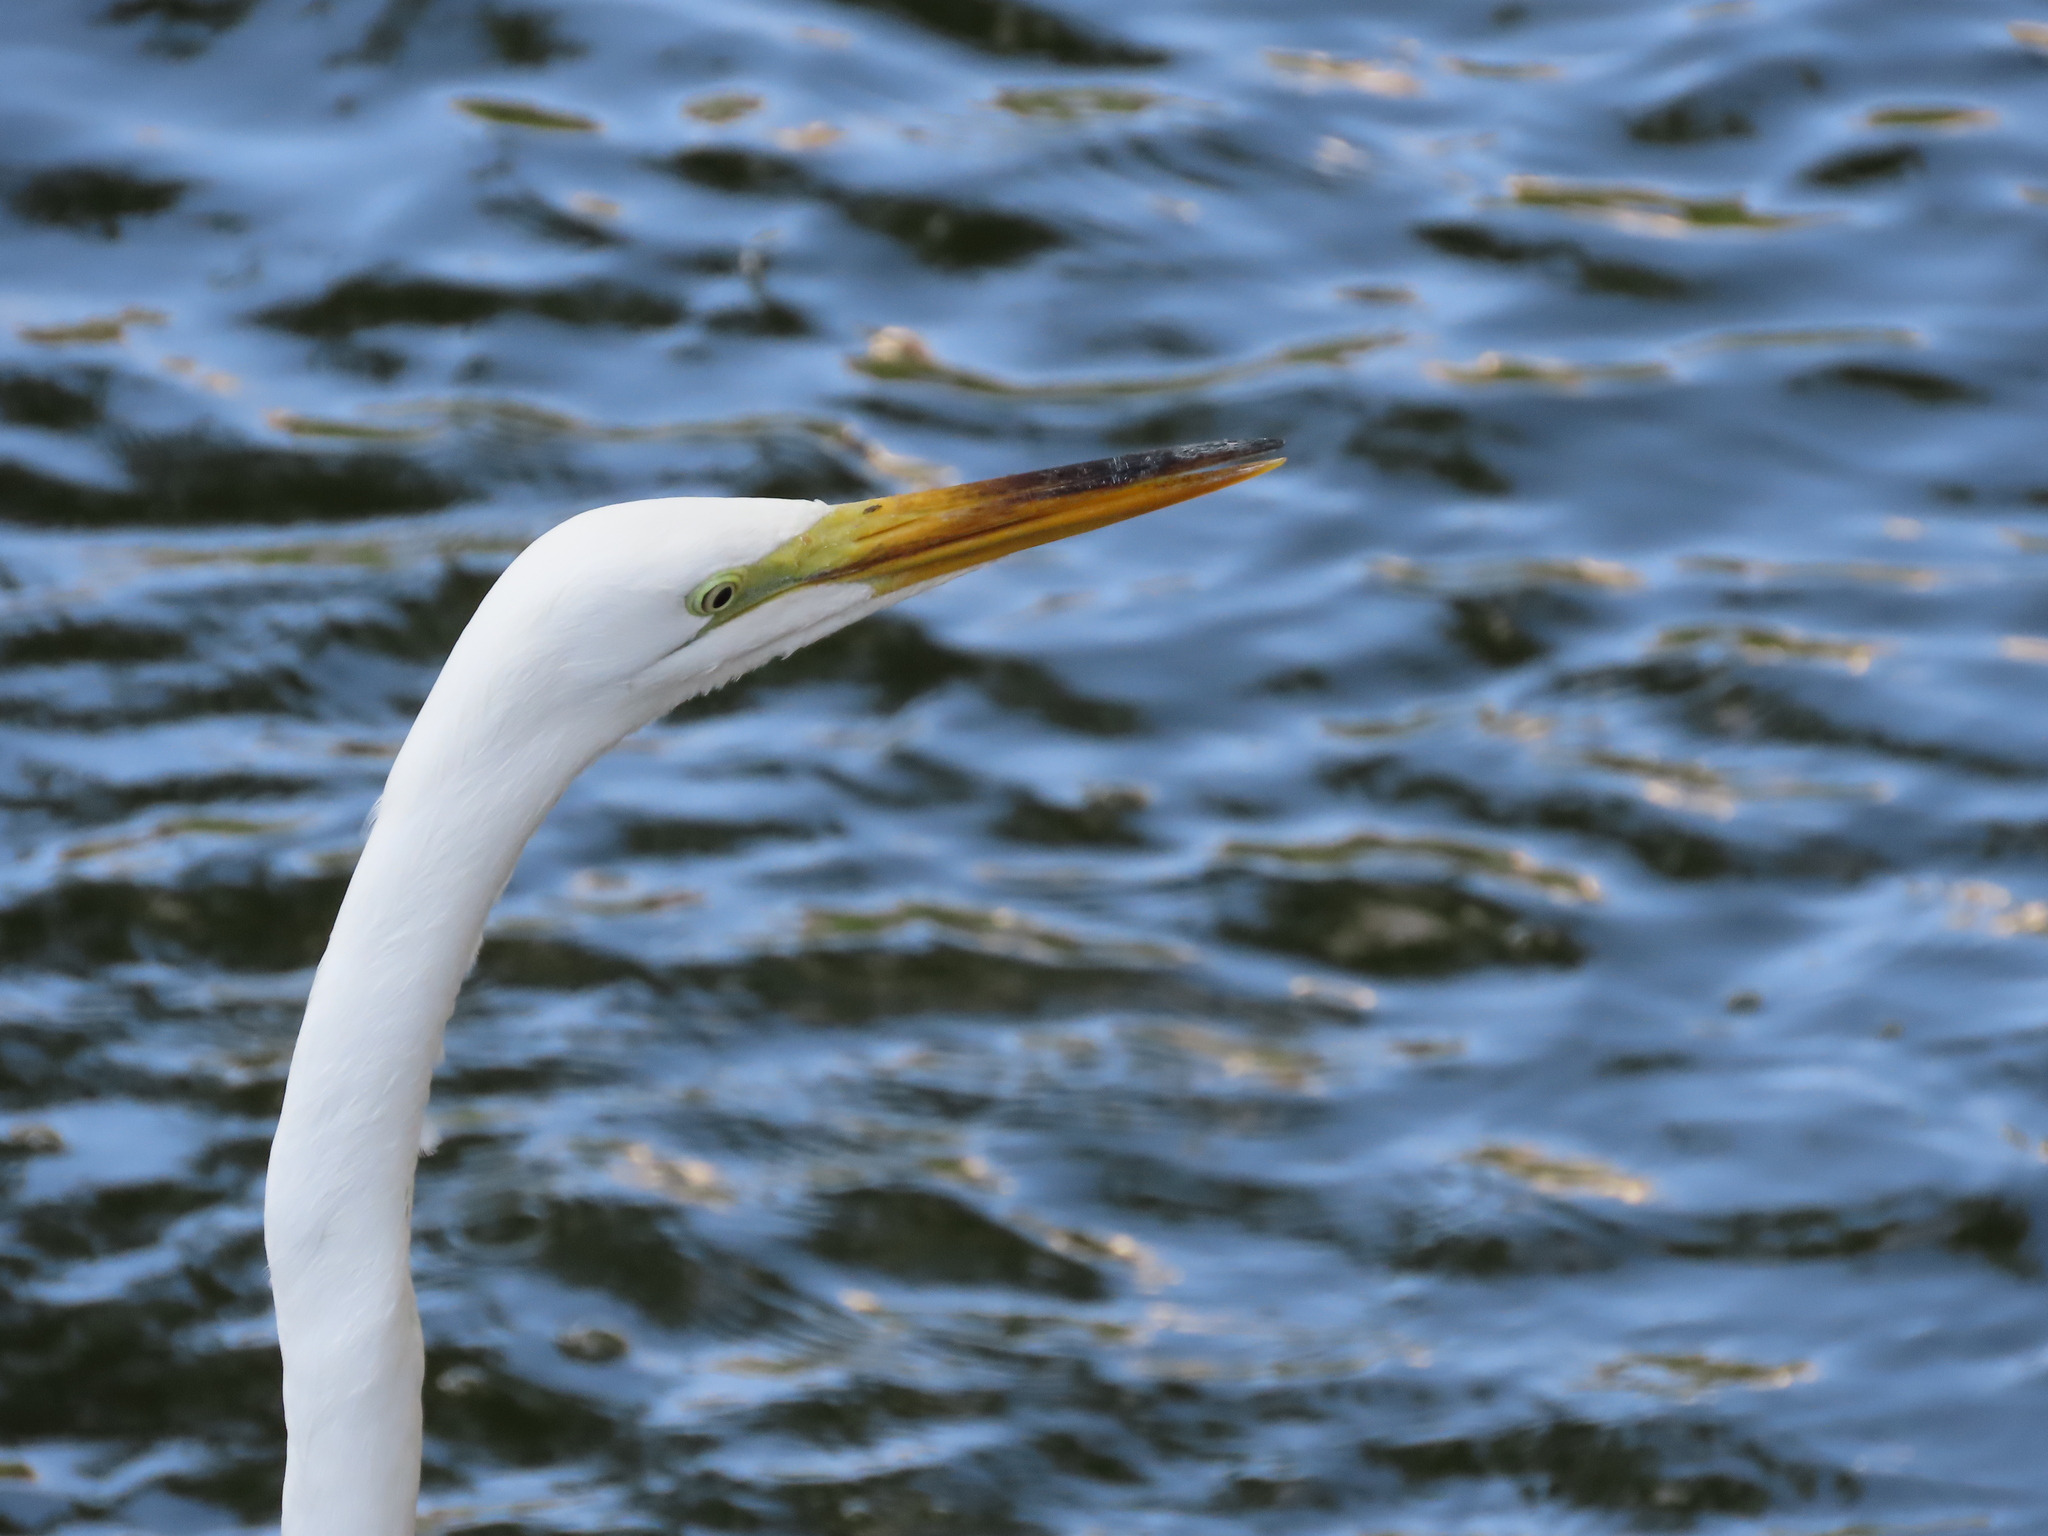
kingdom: Animalia
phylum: Chordata
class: Aves
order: Pelecaniformes
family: Ardeidae
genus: Ardea
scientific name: Ardea alba
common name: Great egret
